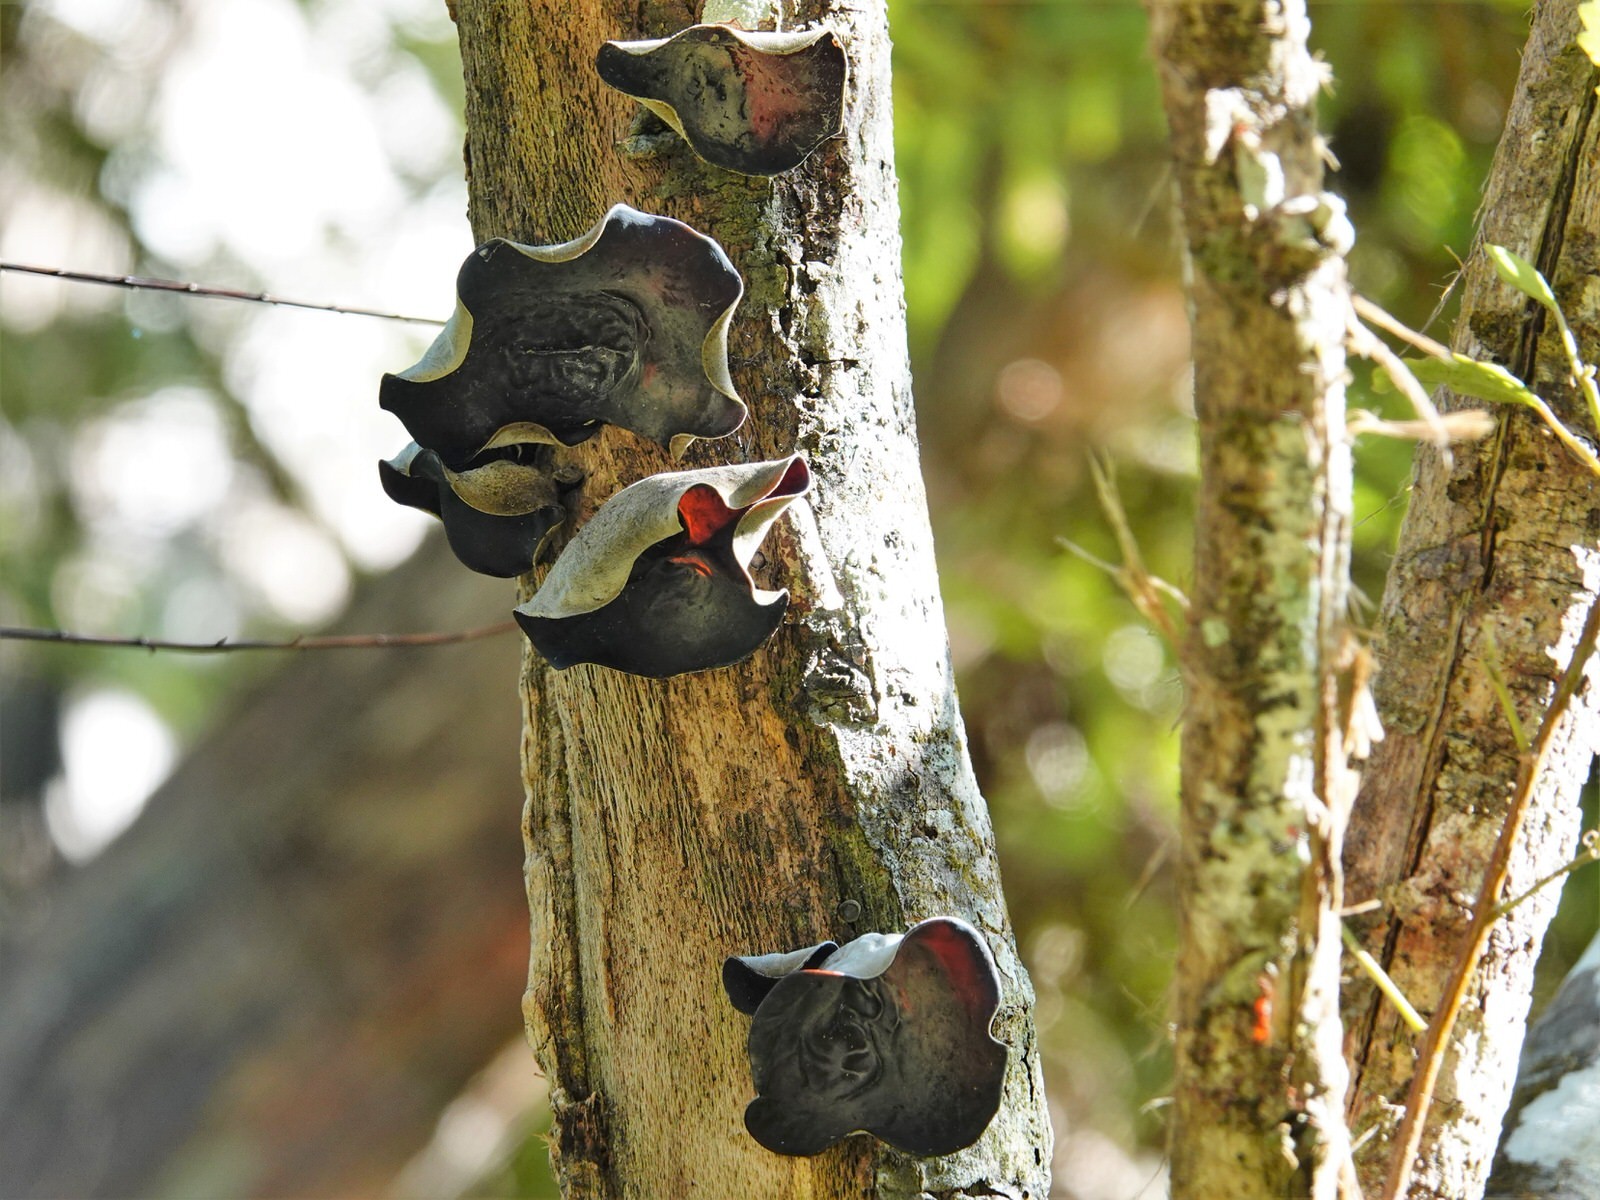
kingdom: Fungi
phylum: Basidiomycota
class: Agaricomycetes
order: Auriculariales
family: Auriculariaceae
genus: Auricularia
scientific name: Auricularia cornea
